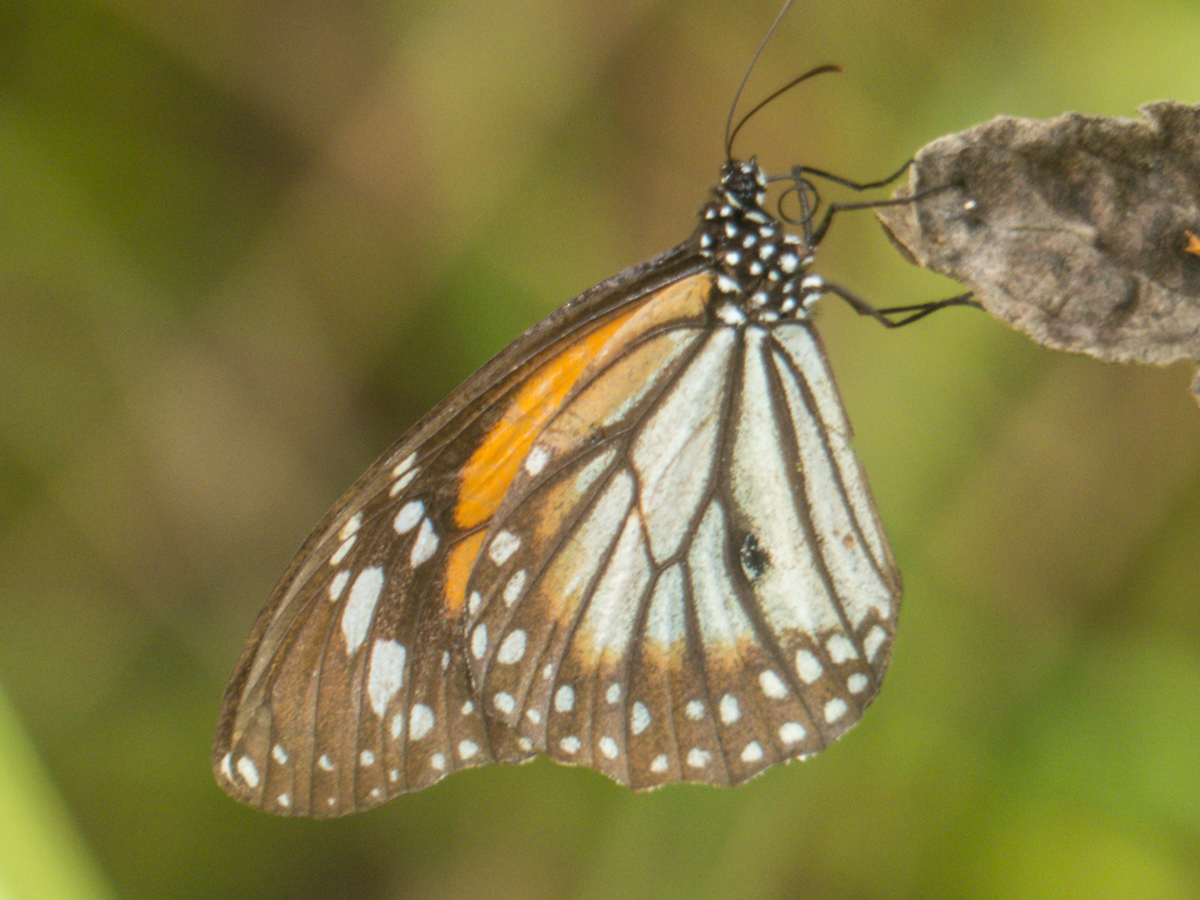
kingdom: Animalia
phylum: Arthropoda
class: Insecta
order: Lepidoptera
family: Nymphalidae
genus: Danaus
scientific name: Danaus melanippus
